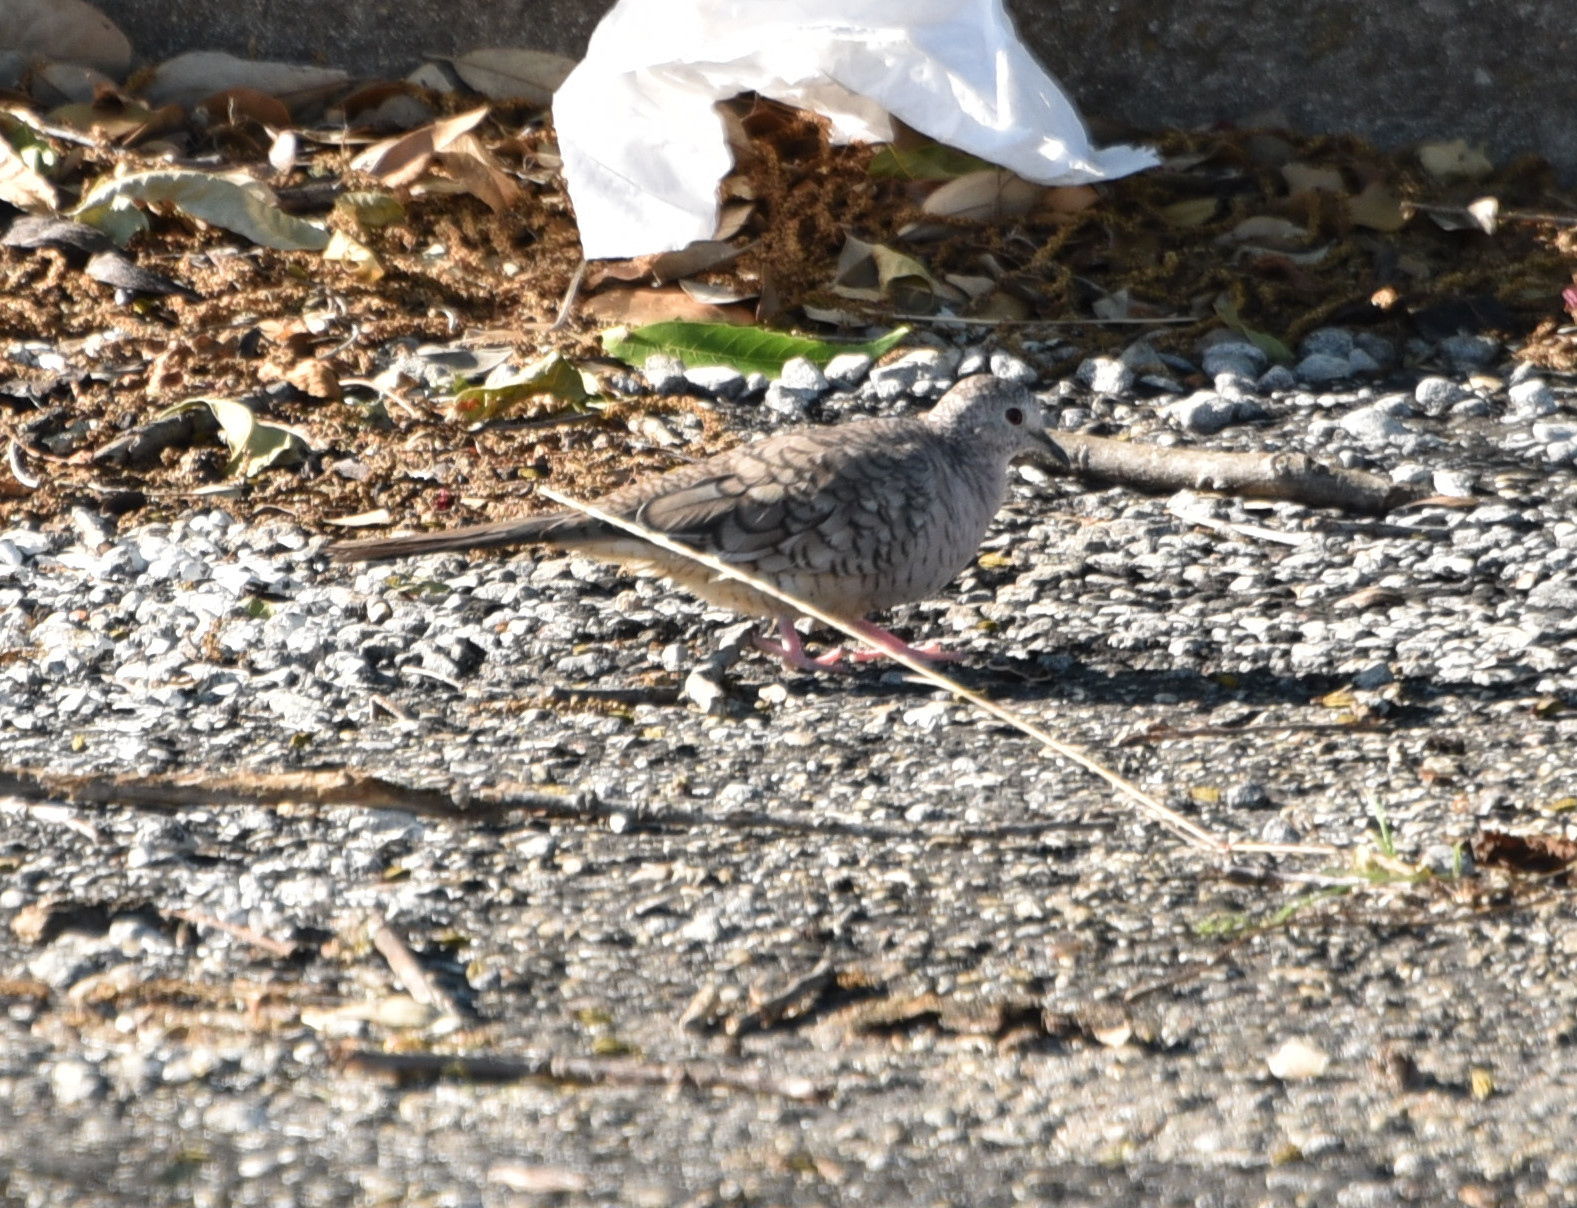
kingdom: Animalia
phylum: Chordata
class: Aves
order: Columbiformes
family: Columbidae
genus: Columbina
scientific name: Columbina inca
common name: Inca dove
